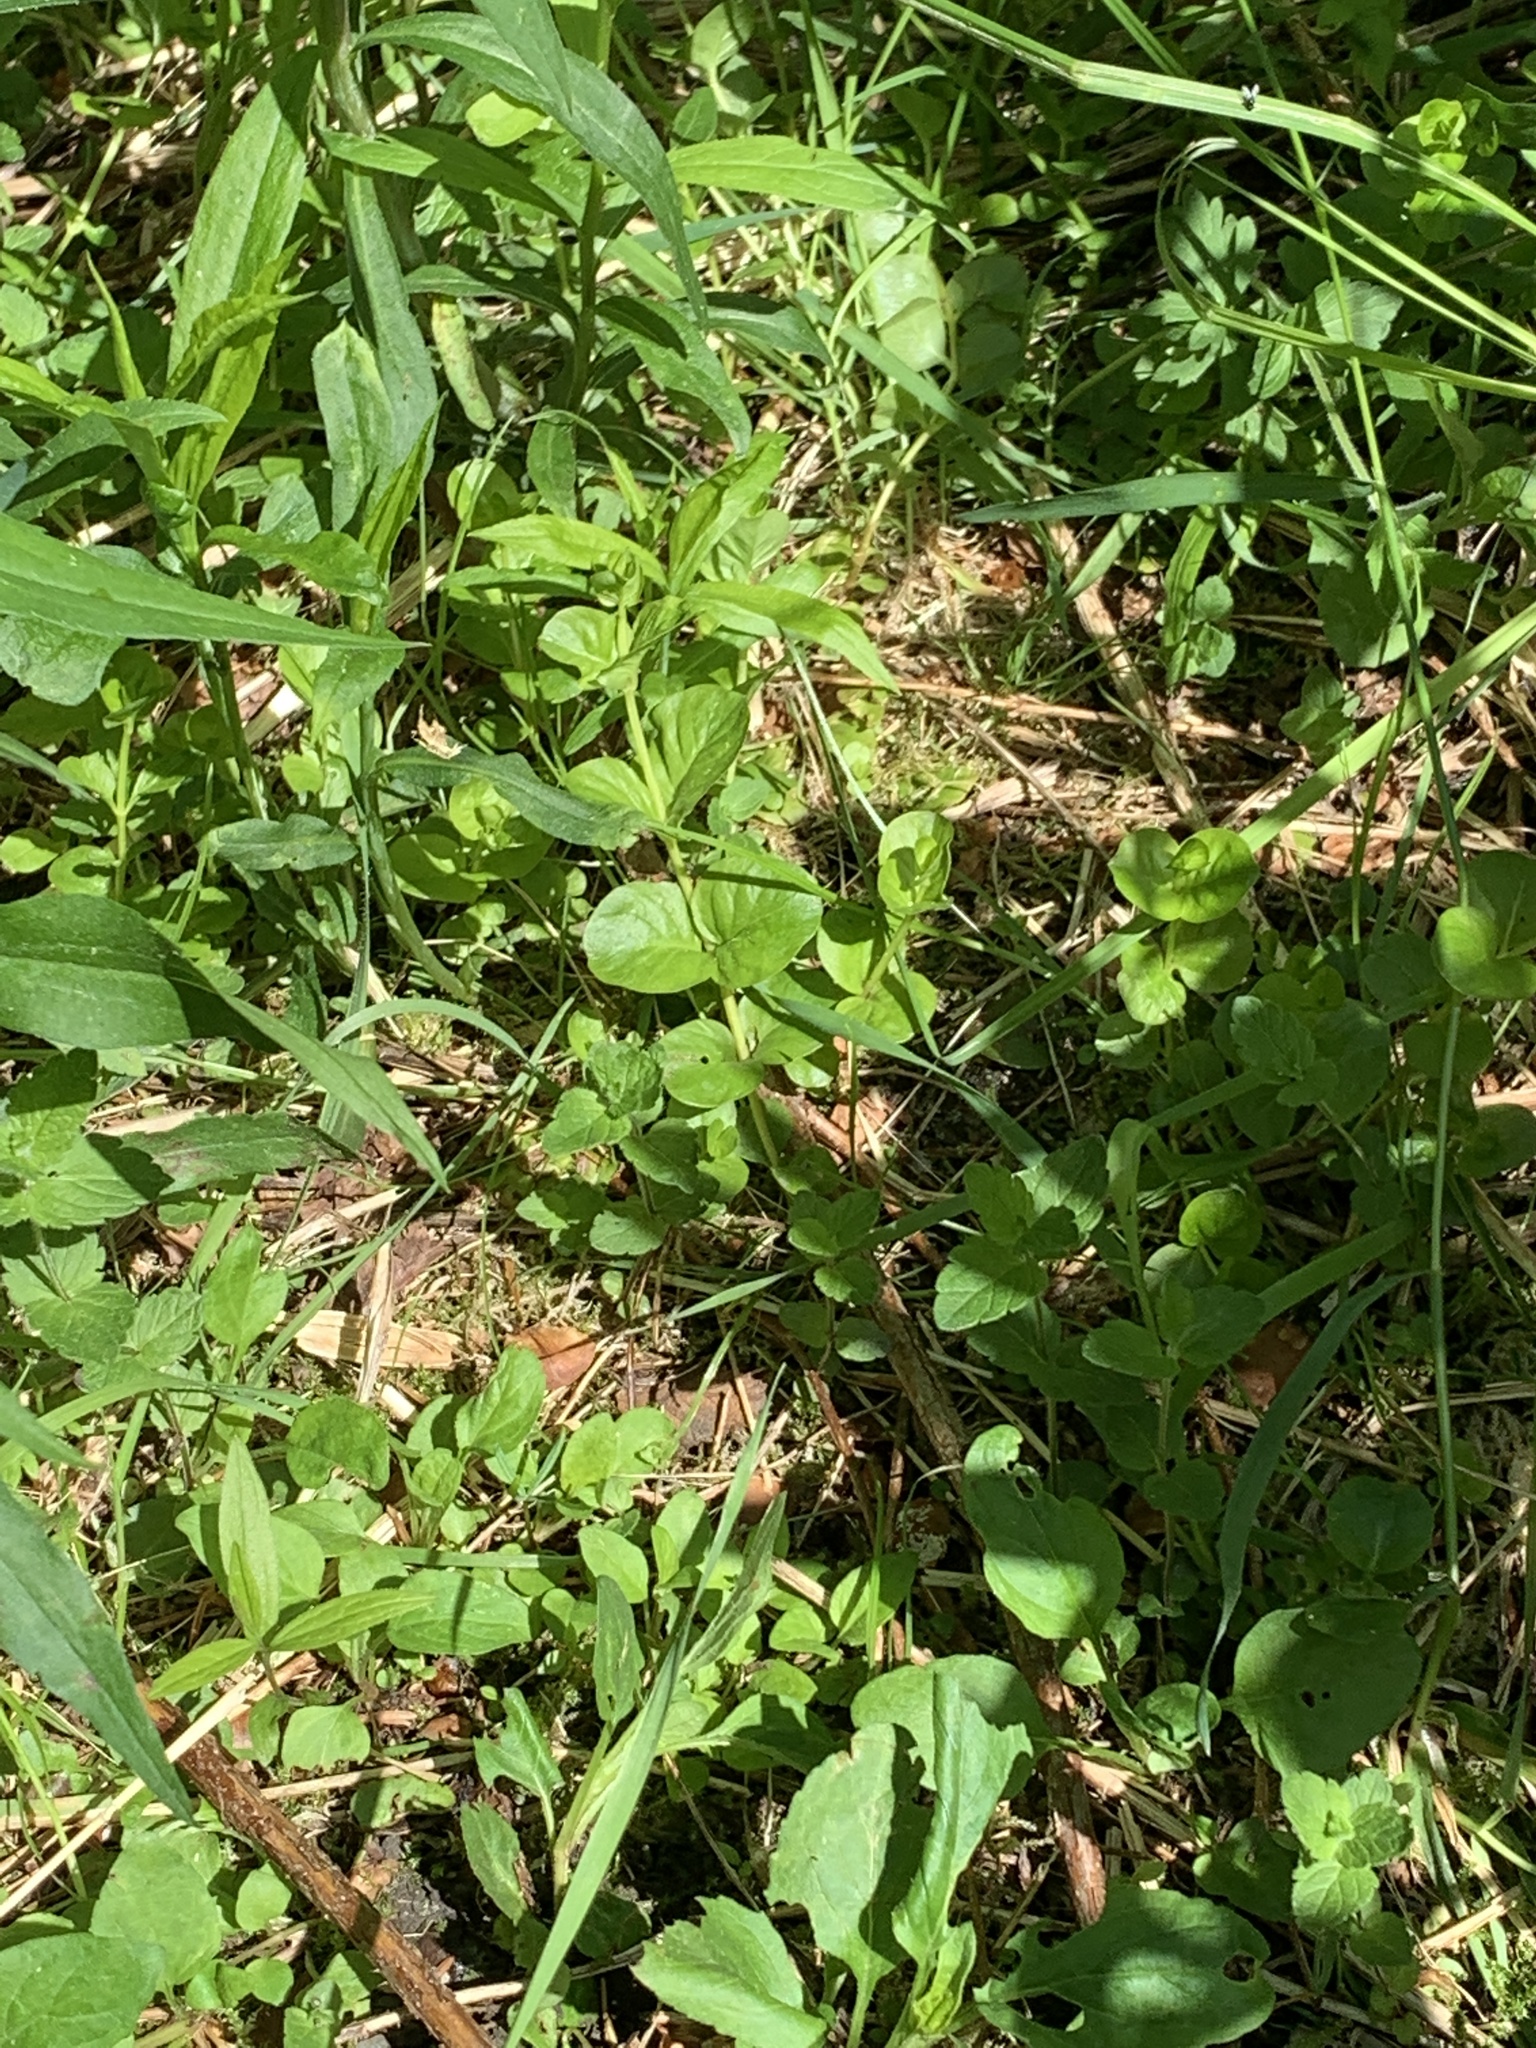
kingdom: Plantae
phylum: Tracheophyta
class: Magnoliopsida
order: Ericales
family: Primulaceae
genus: Lysimachia
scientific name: Lysimachia nummularia
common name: Moneywort
